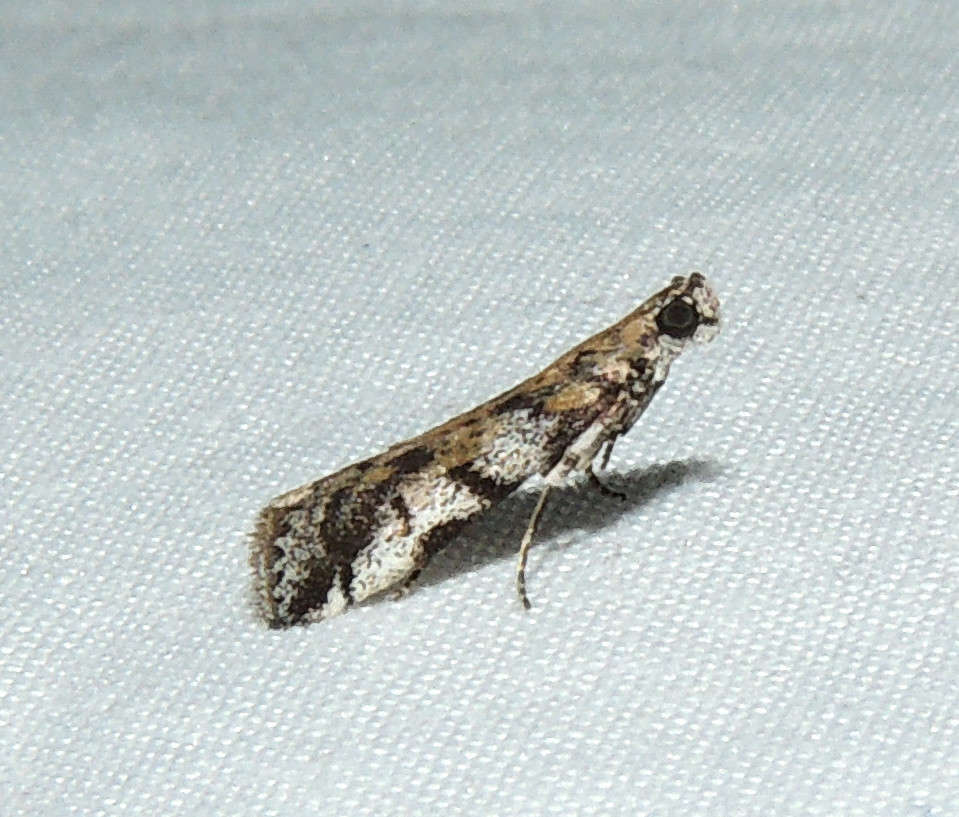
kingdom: Animalia
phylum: Arthropoda
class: Insecta
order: Lepidoptera
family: Pyralidae
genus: Assara
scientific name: Assara holophragma
